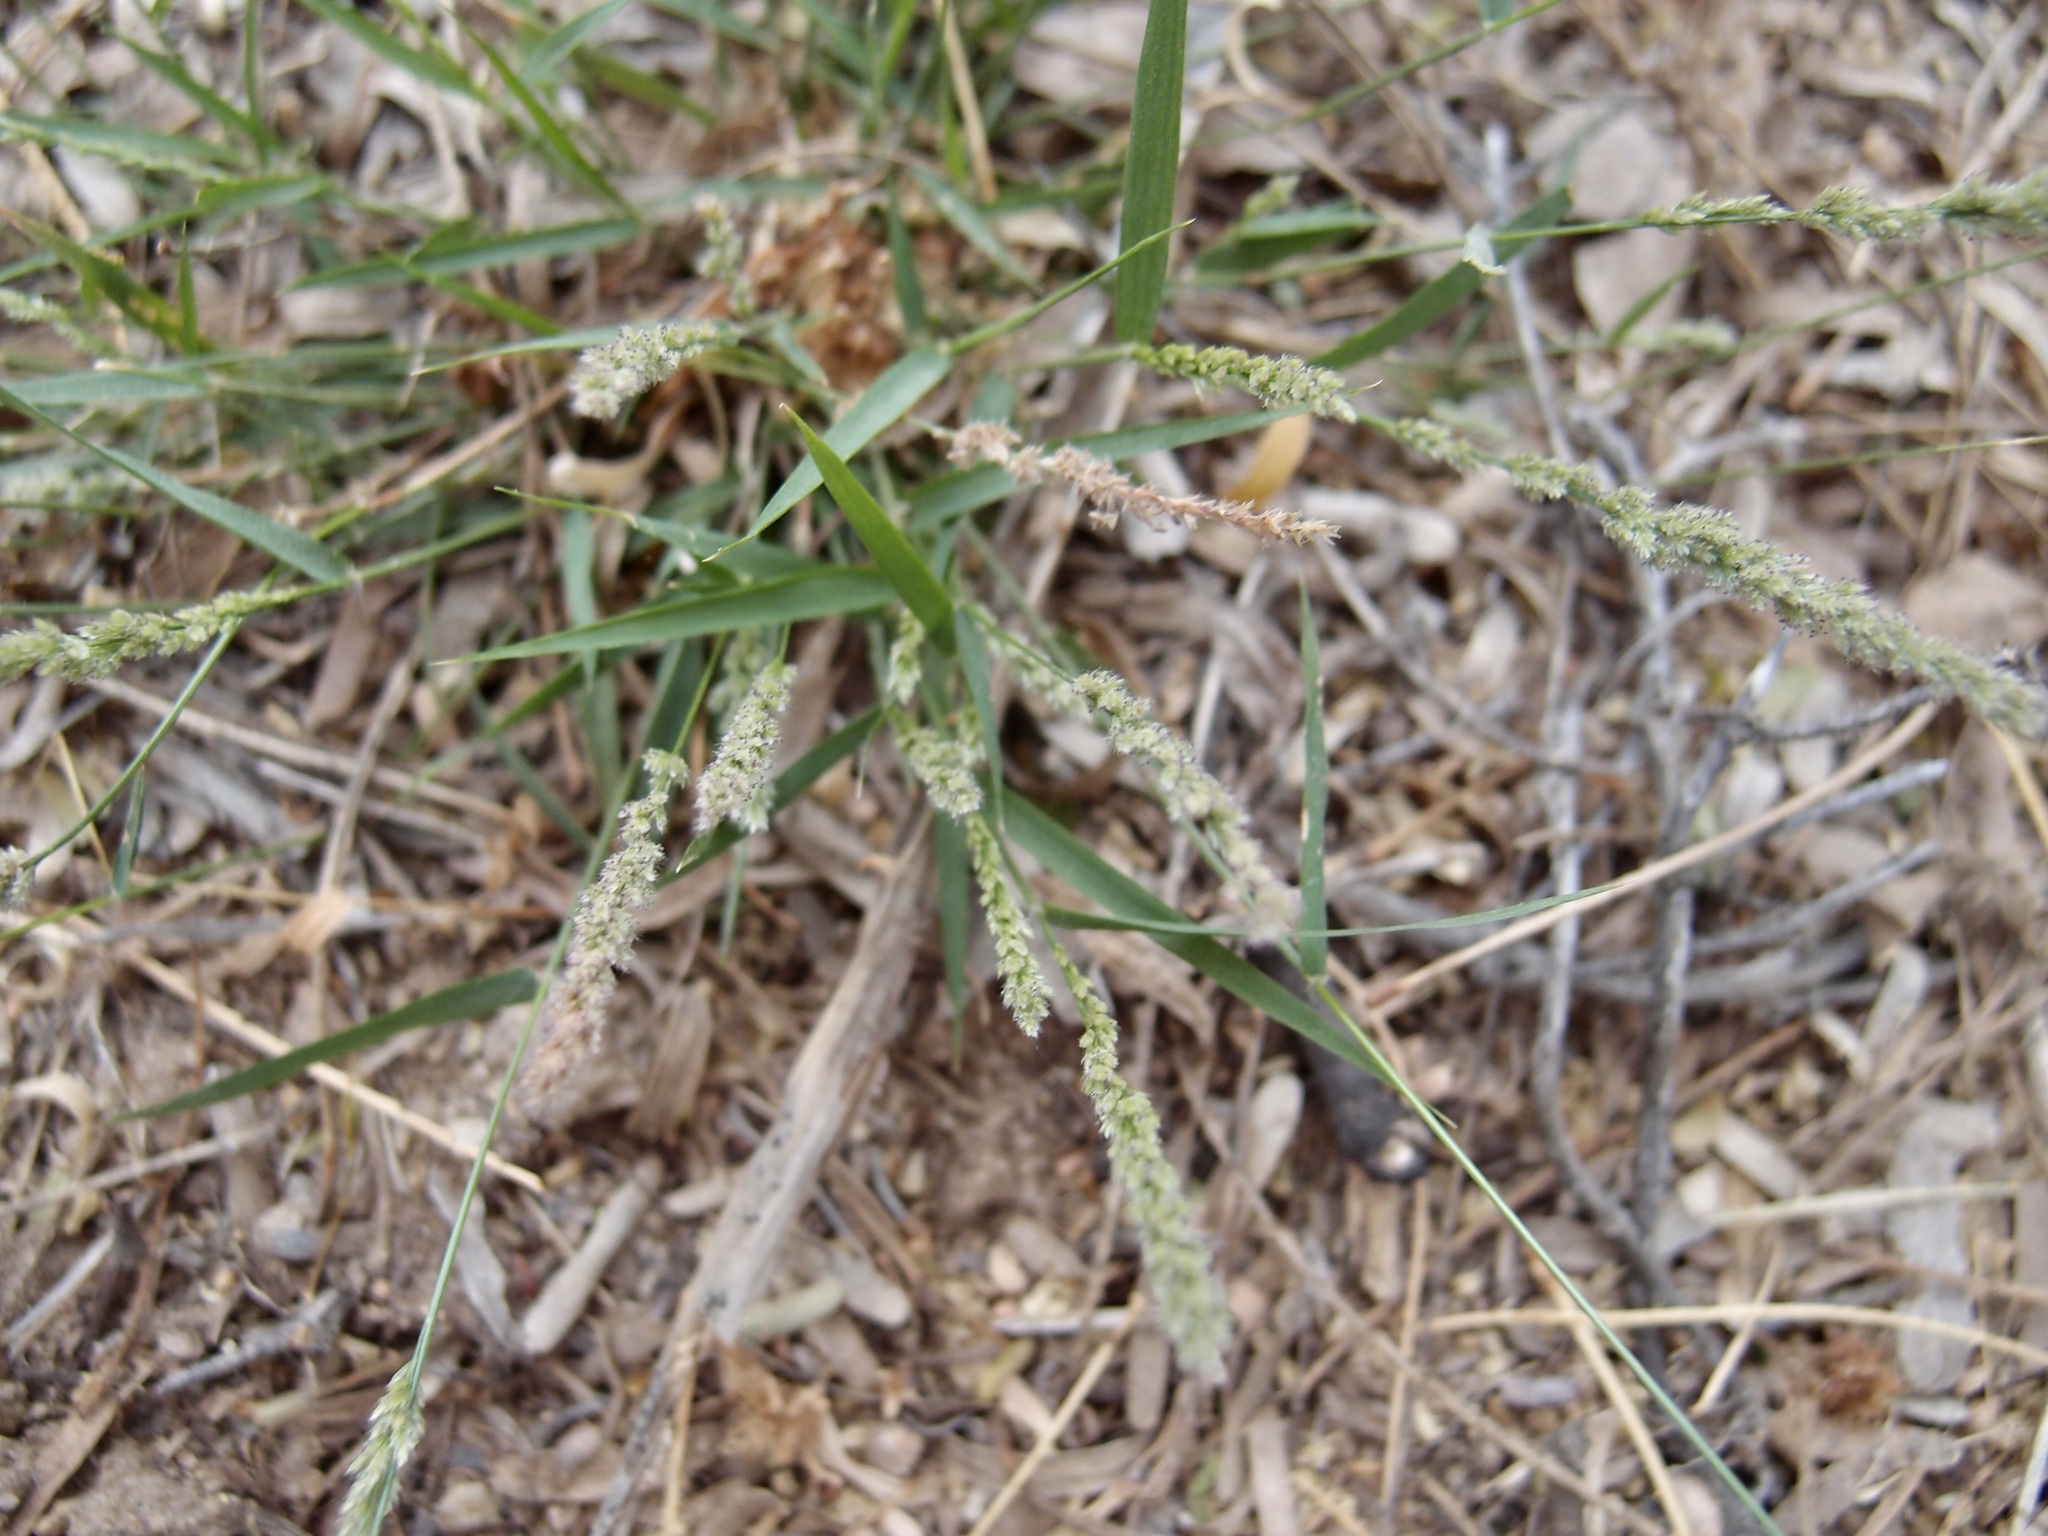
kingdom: Plantae
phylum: Tracheophyta
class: Liliopsida
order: Poales
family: Poaceae
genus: Eragrostis
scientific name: Eragrostis ciliaris
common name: Gophertail lovegrass
